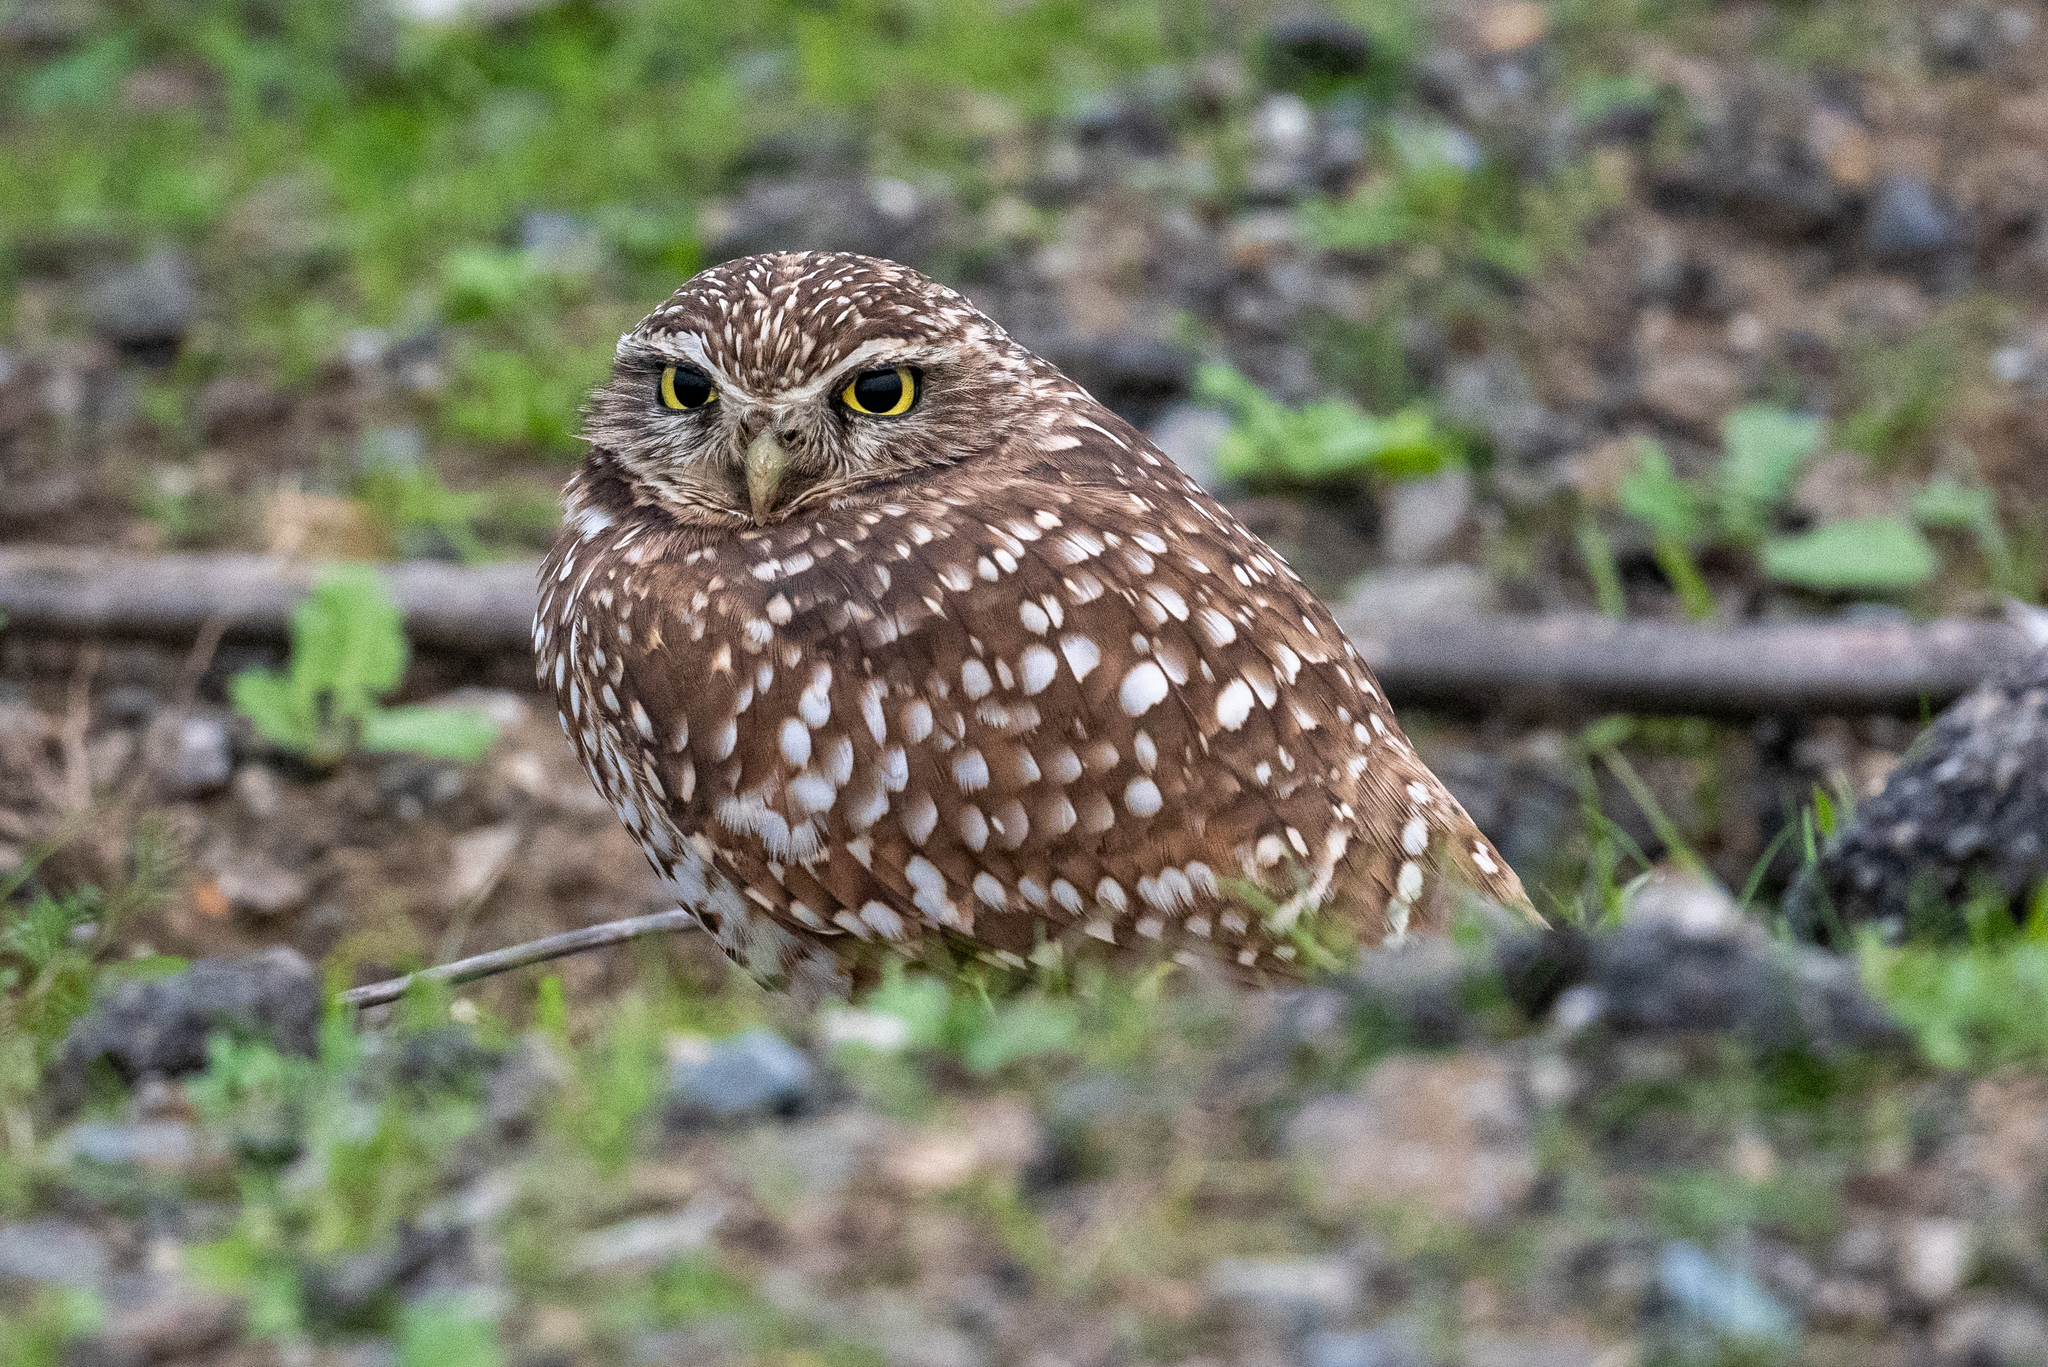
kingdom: Animalia
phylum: Chordata
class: Aves
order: Strigiformes
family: Strigidae
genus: Athene
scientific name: Athene cunicularia
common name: Burrowing owl
